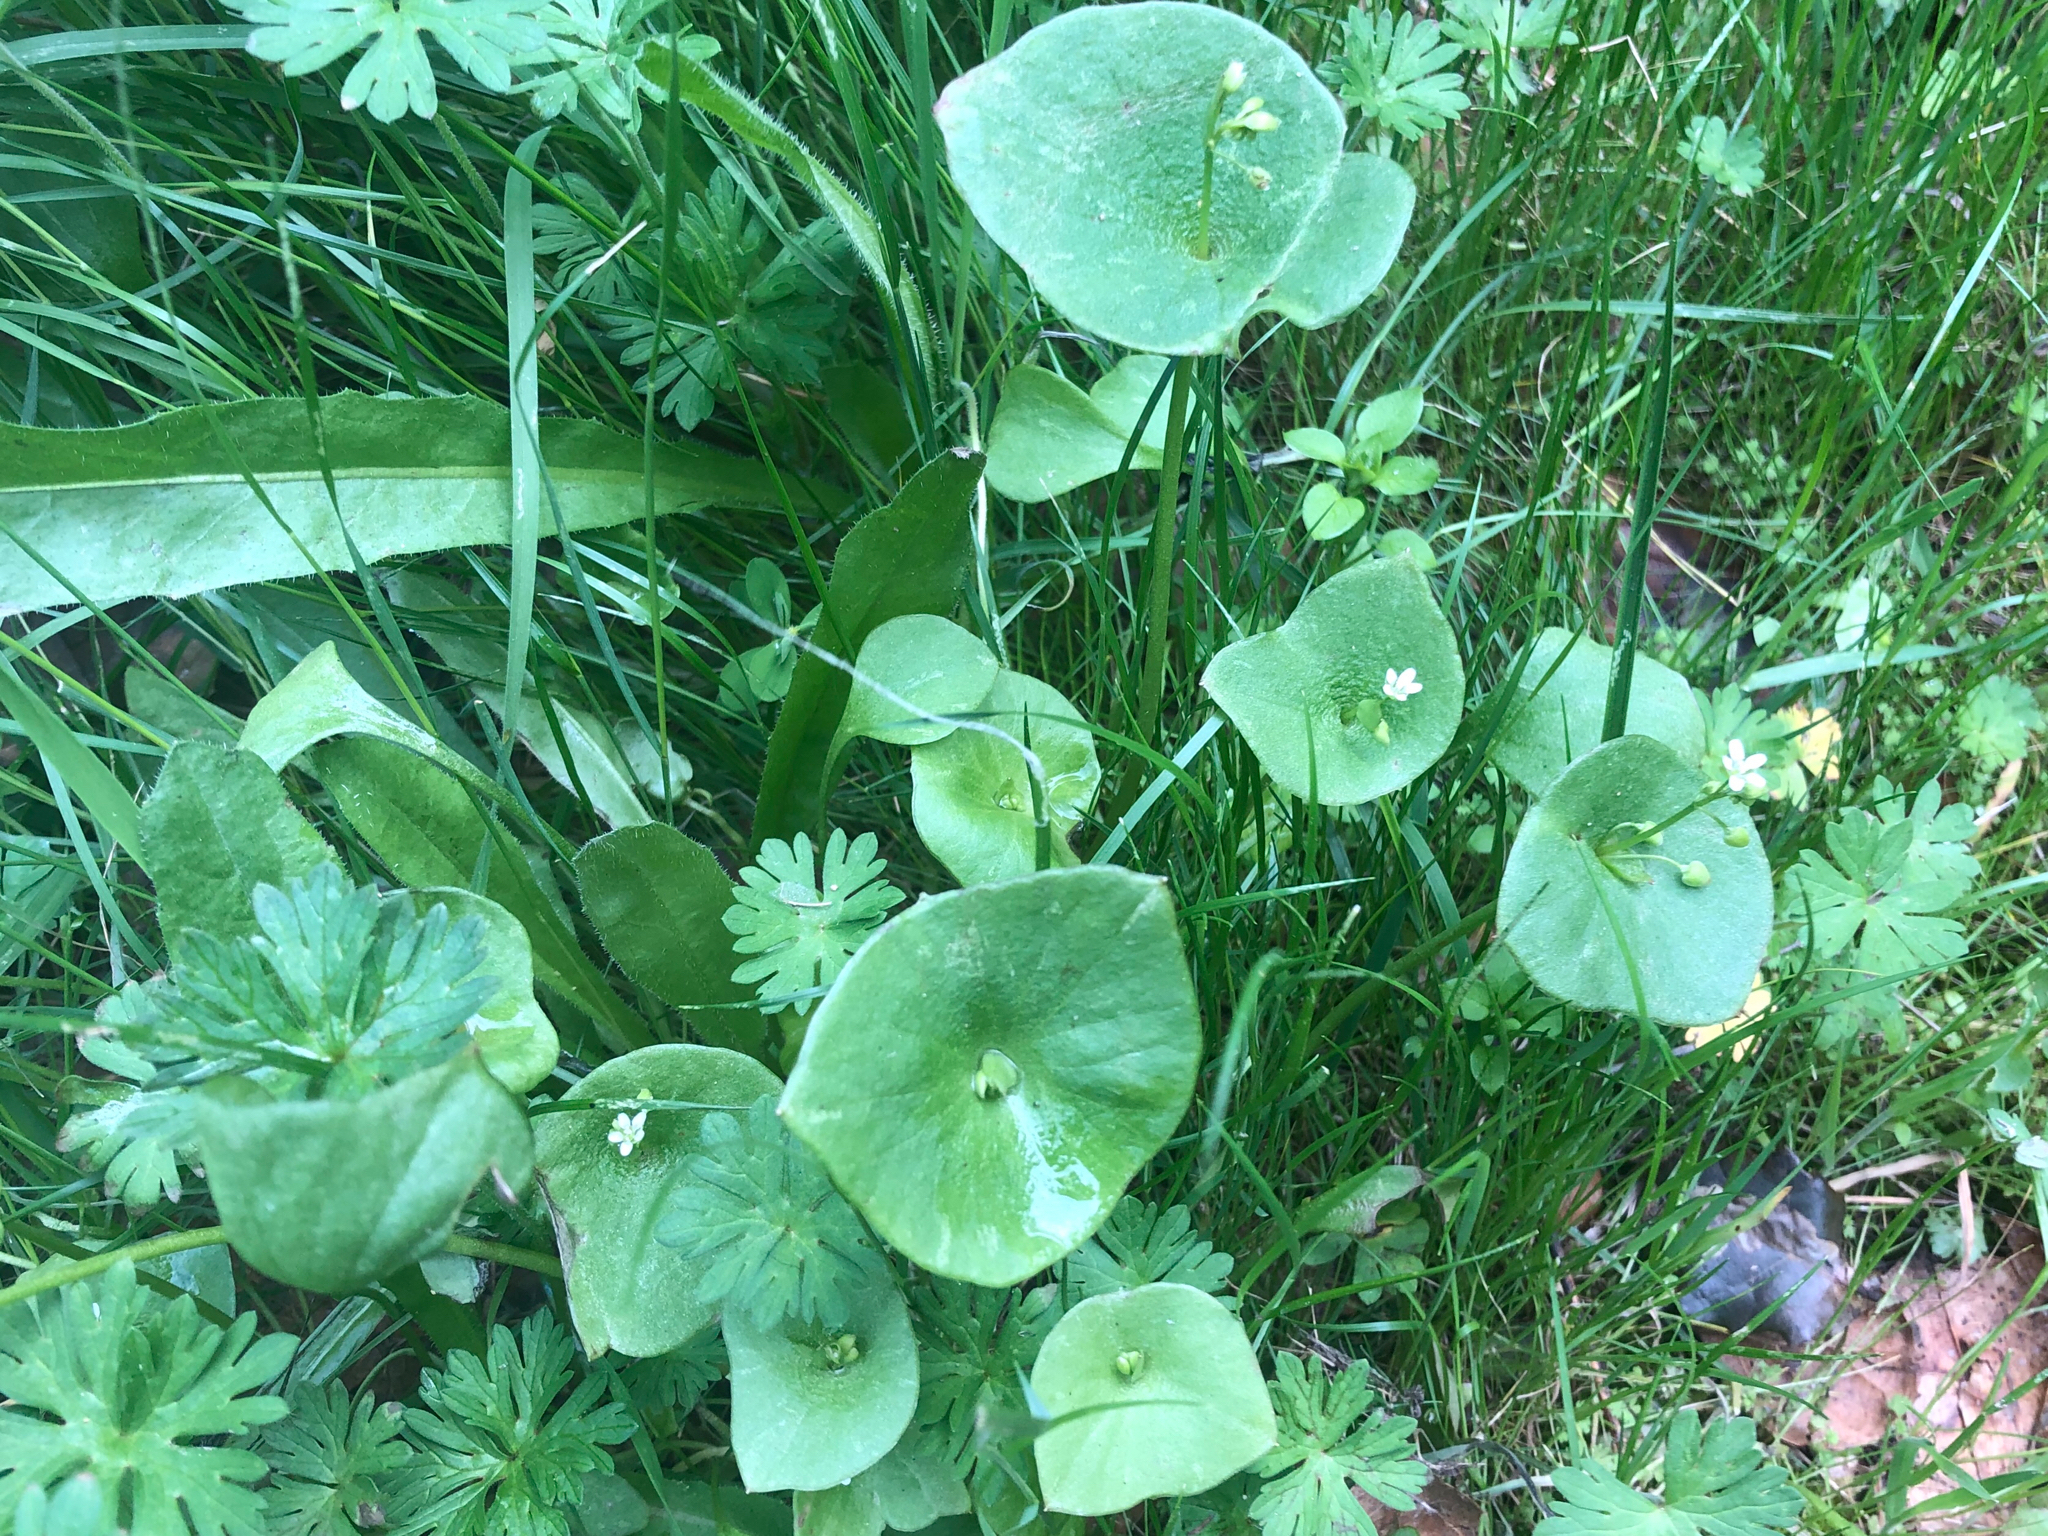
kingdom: Plantae
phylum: Tracheophyta
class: Magnoliopsida
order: Caryophyllales
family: Montiaceae
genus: Claytonia
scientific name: Claytonia perfoliata
